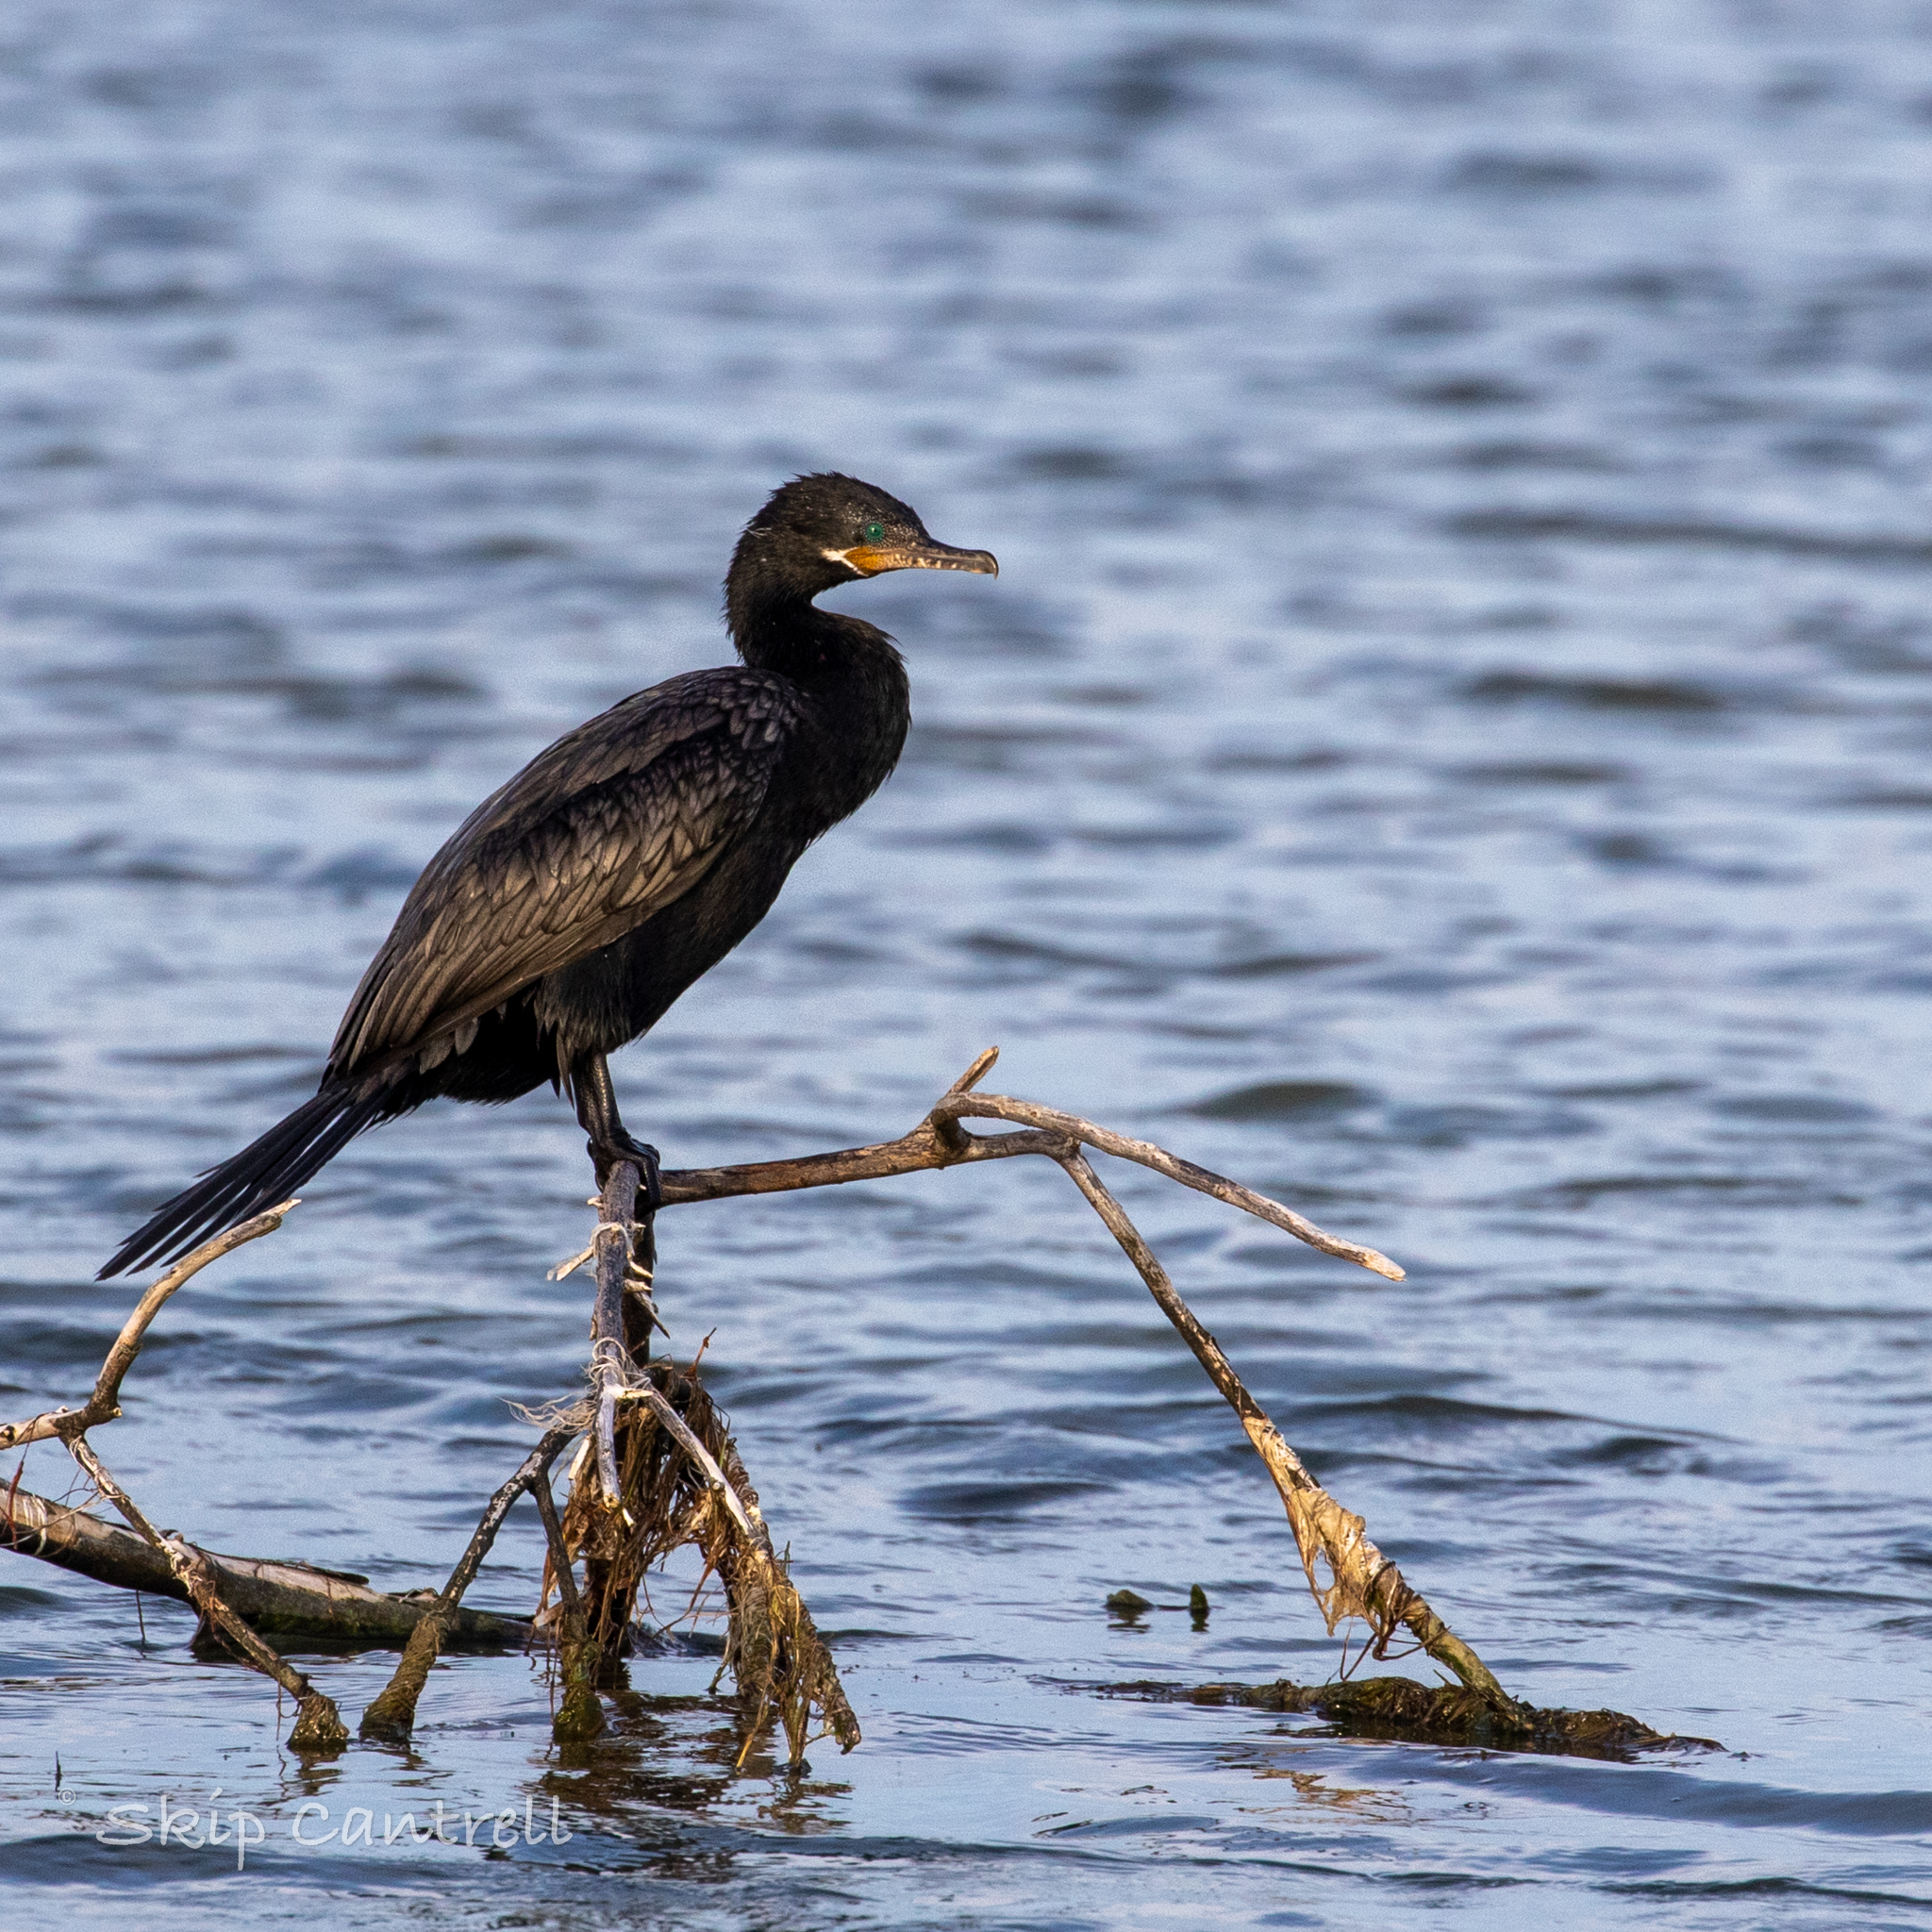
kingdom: Animalia
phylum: Chordata
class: Aves
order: Suliformes
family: Phalacrocoracidae
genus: Phalacrocorax
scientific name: Phalacrocorax brasilianus
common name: Neotropic cormorant
